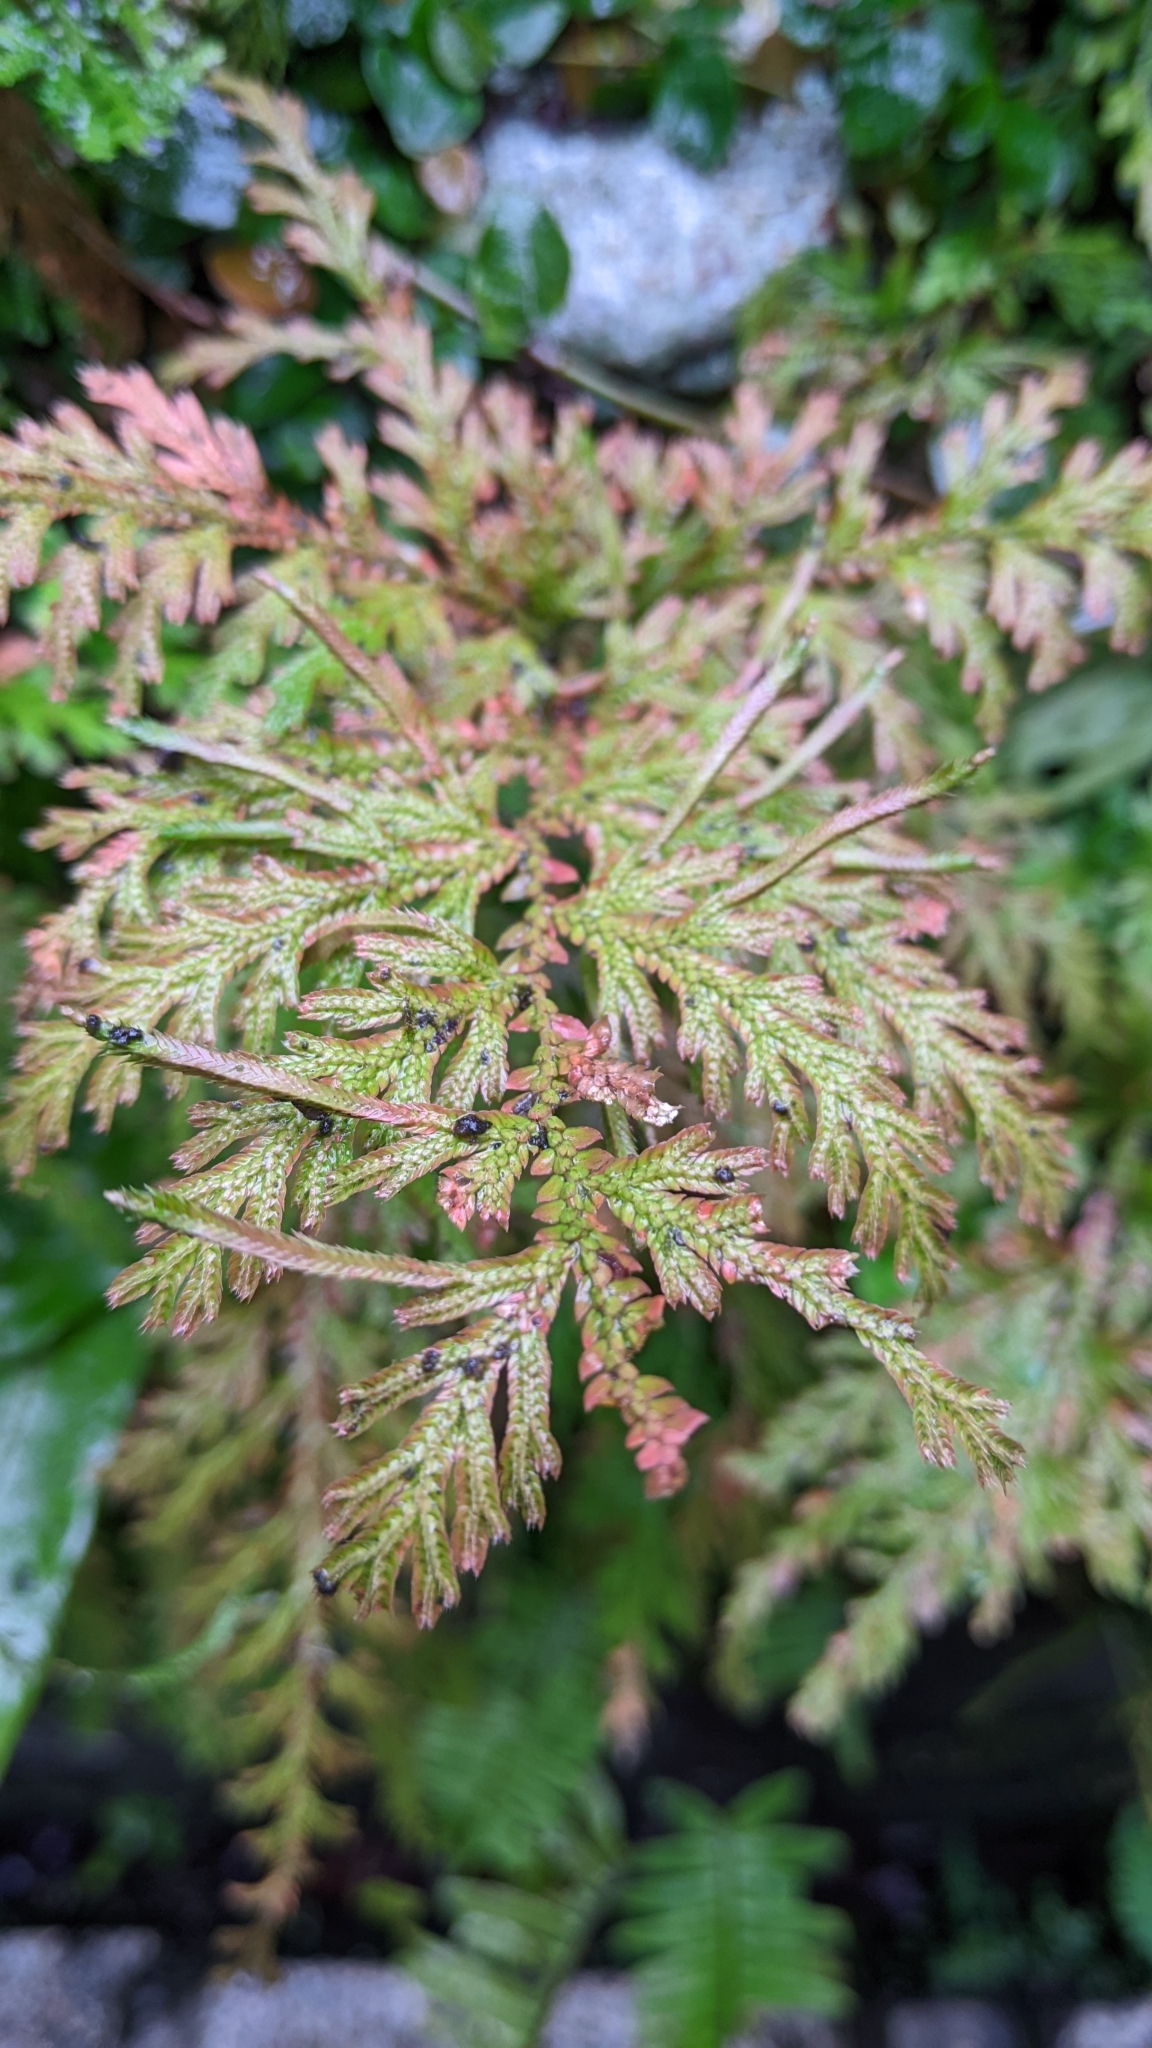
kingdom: Plantae
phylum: Tracheophyta
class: Lycopodiopsida
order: Selaginellales
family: Selaginellaceae
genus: Selaginella
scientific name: Selaginella moellendorffii
